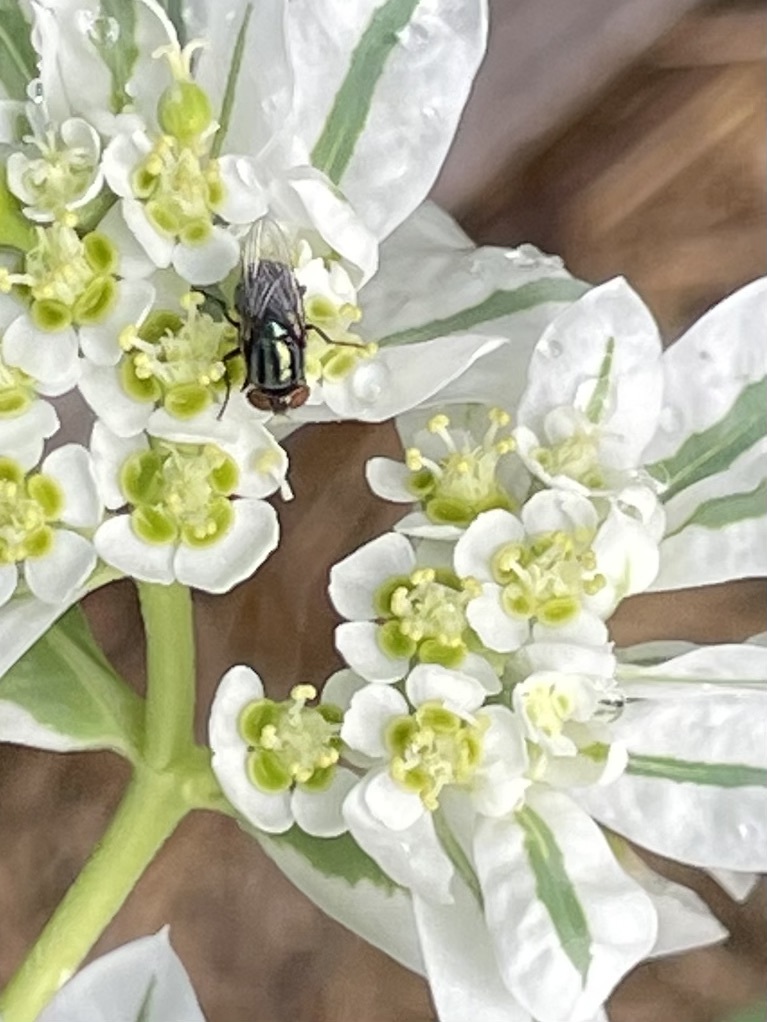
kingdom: Animalia
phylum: Arthropoda
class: Insecta
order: Diptera
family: Calliphoridae
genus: Cochliomyia
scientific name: Cochliomyia macellaria
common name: Secondary screwworm
